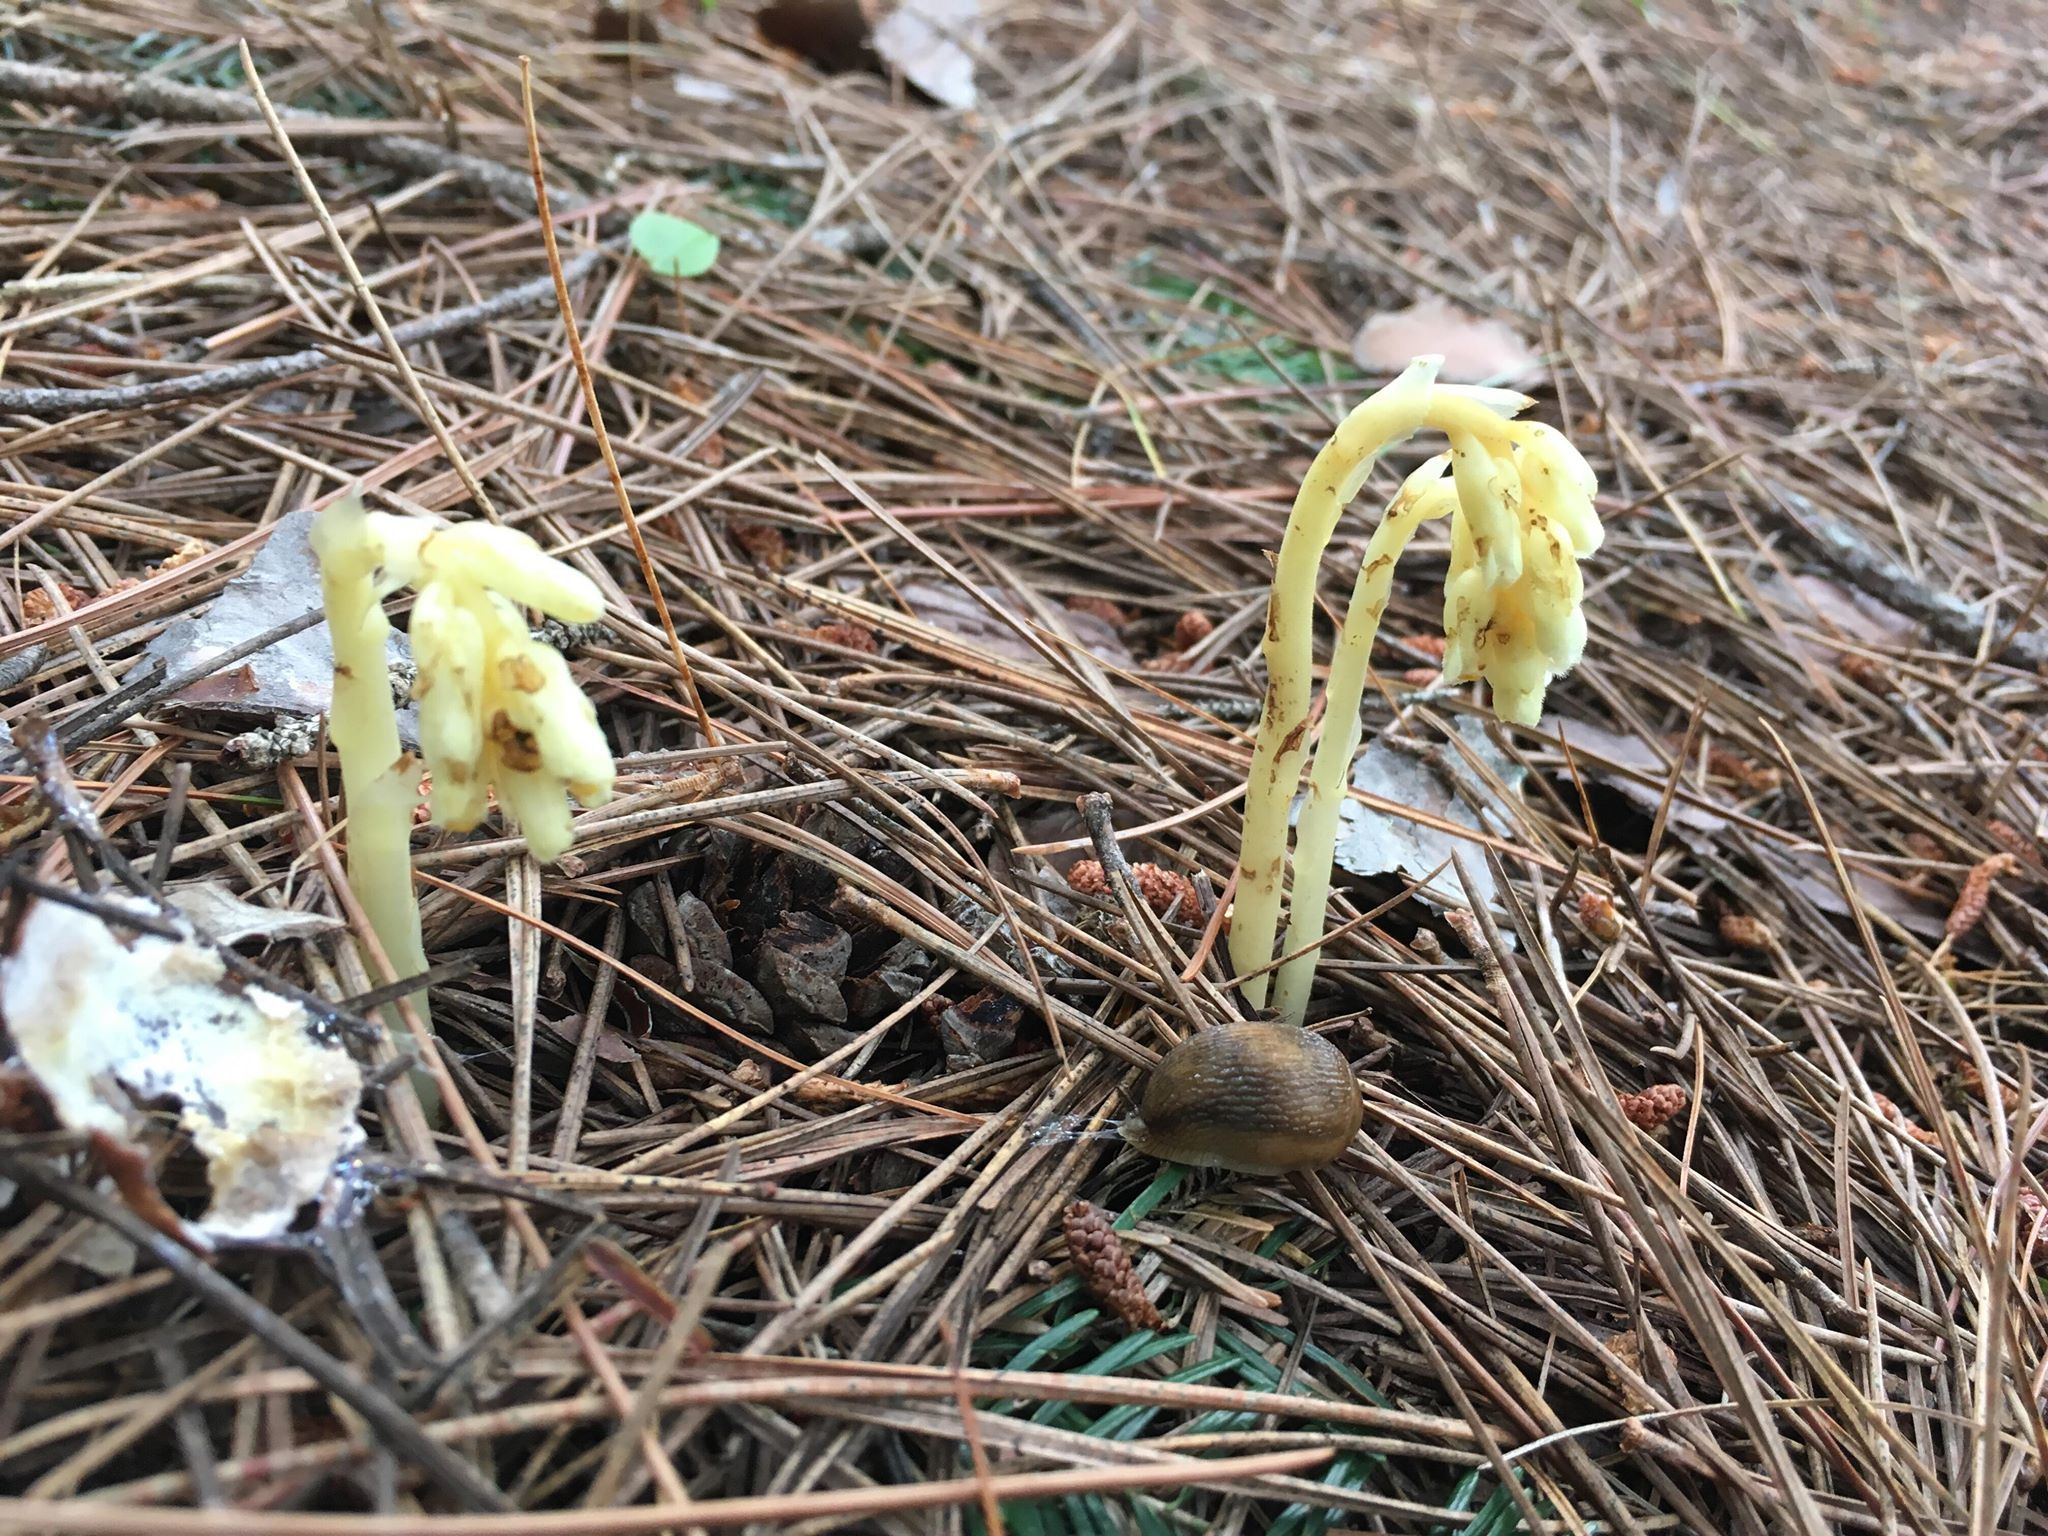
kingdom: Plantae
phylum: Tracheophyta
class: Magnoliopsida
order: Ericales
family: Ericaceae
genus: Hypopitys
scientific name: Hypopitys monotropa
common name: Yellow bird's-nest
